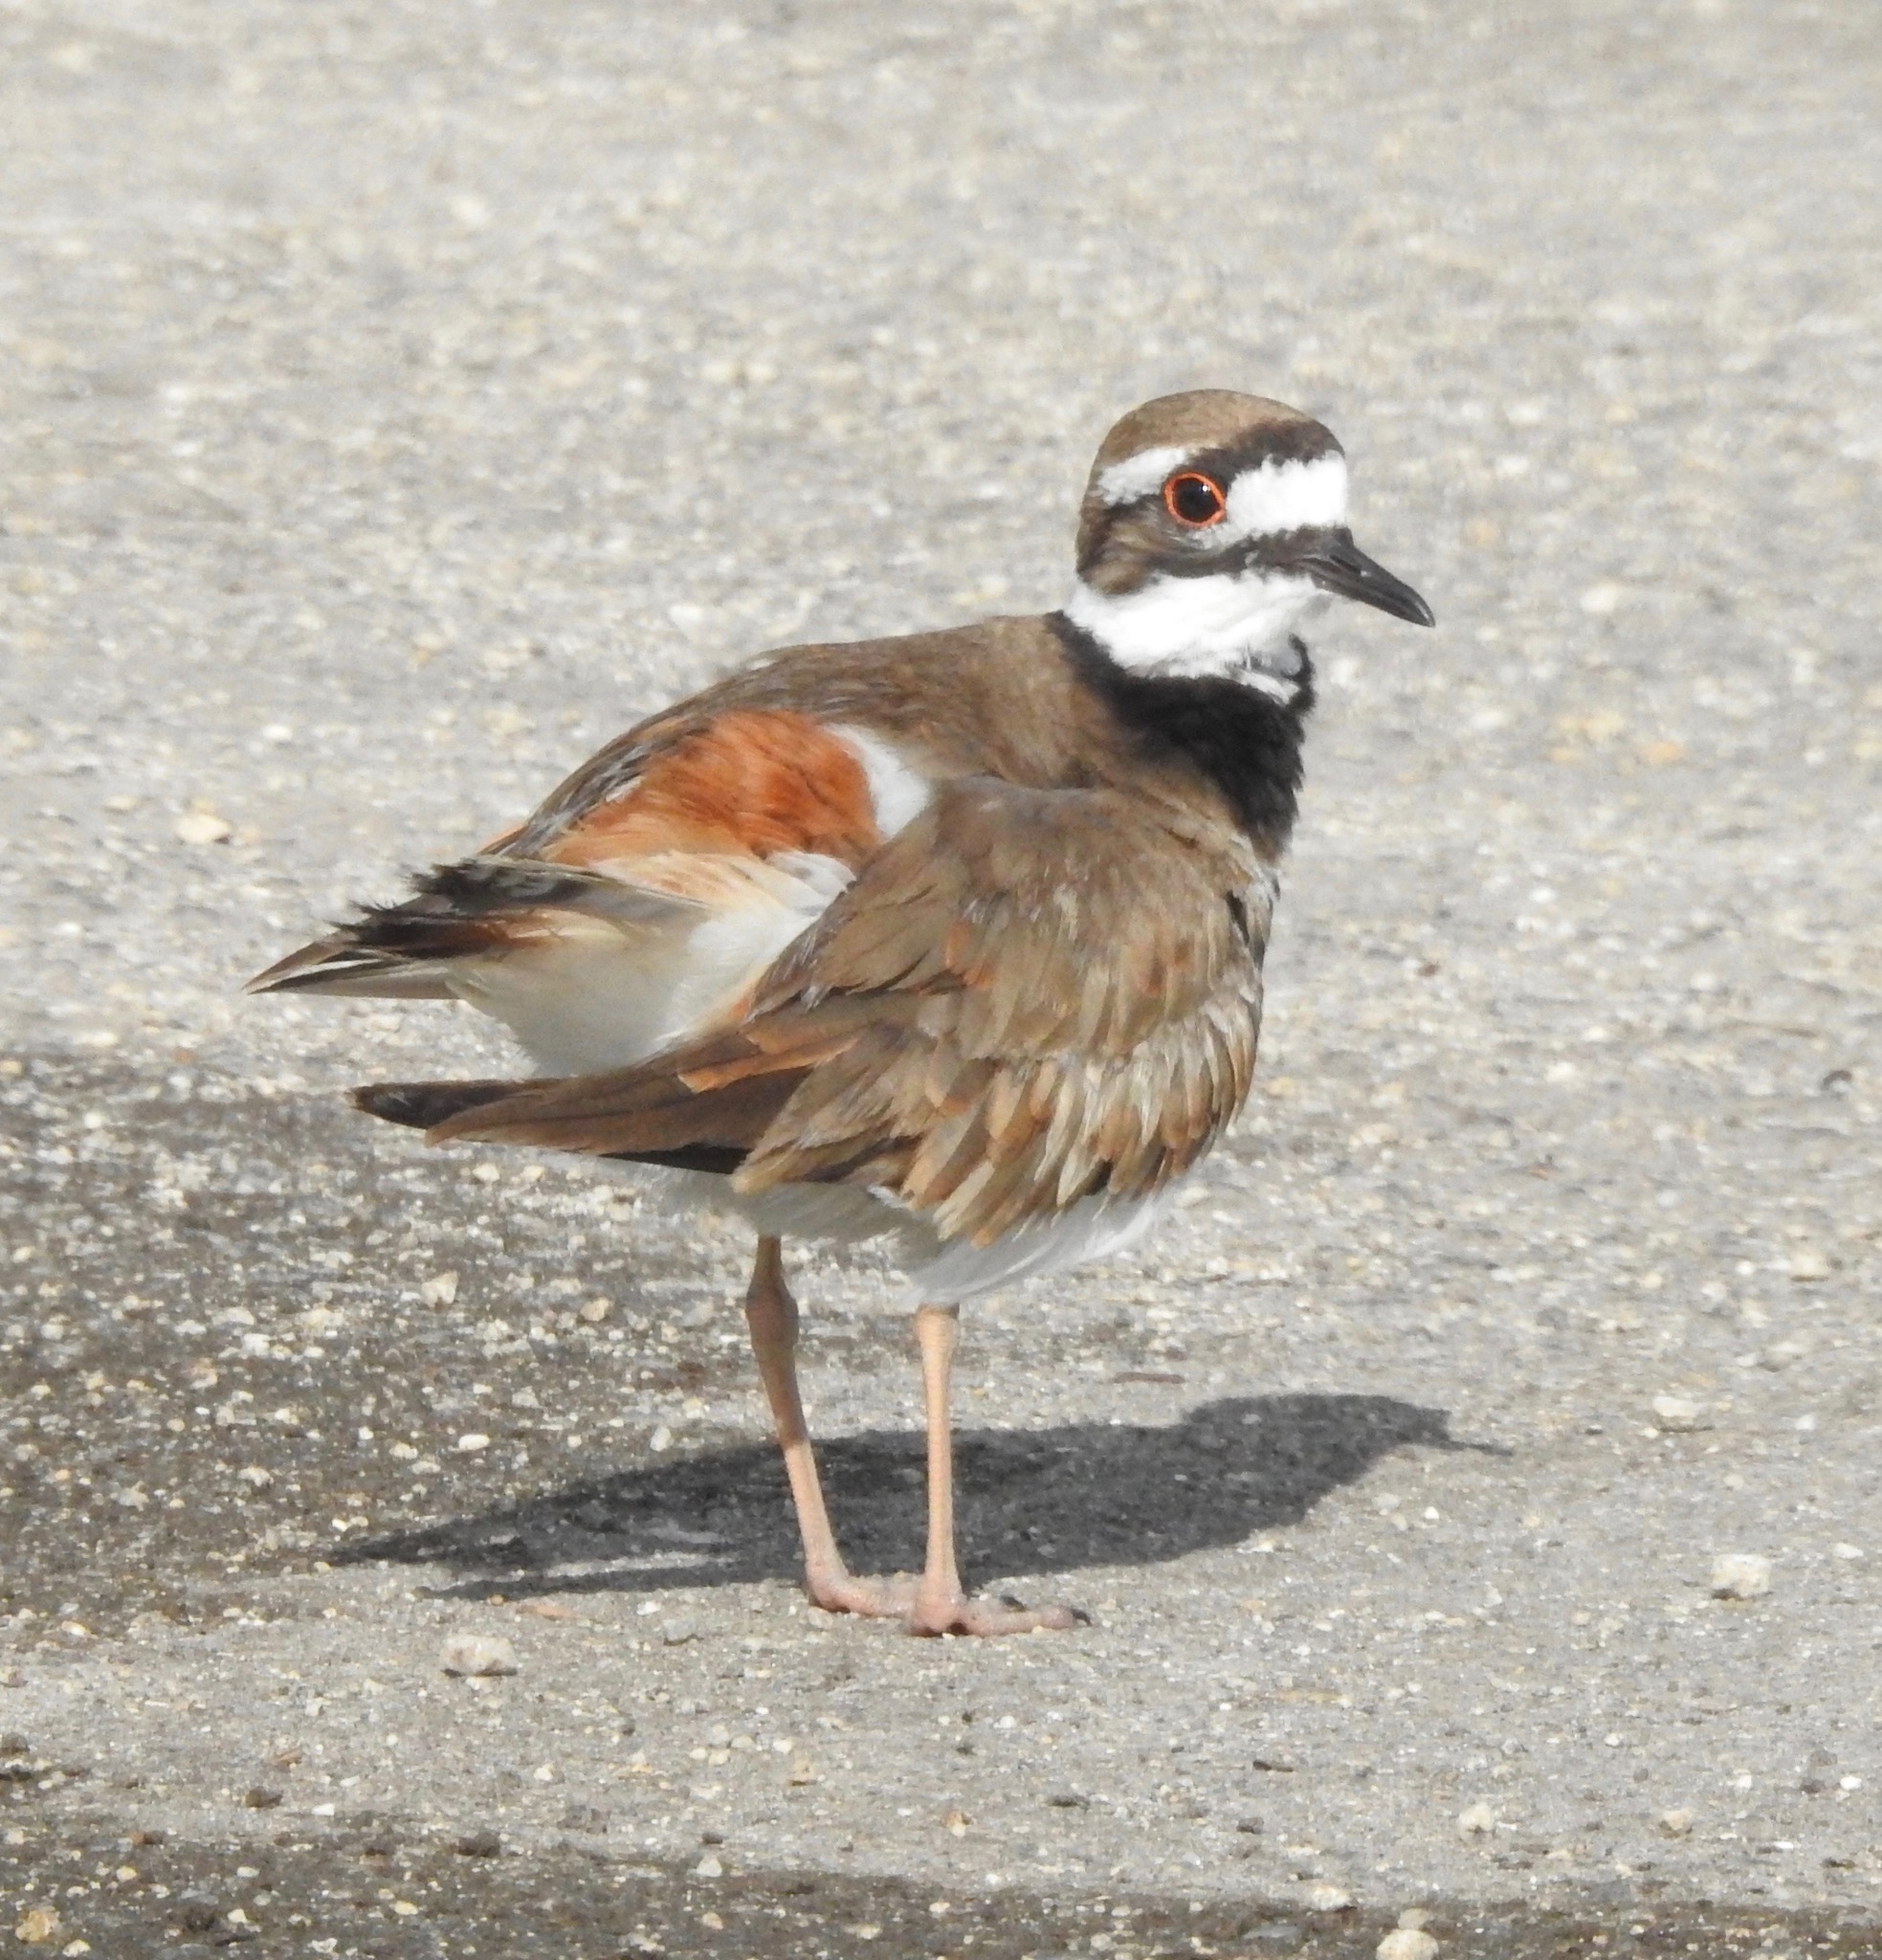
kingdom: Animalia
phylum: Chordata
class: Aves
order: Charadriiformes
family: Charadriidae
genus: Charadrius
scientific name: Charadrius vociferus
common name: Killdeer
